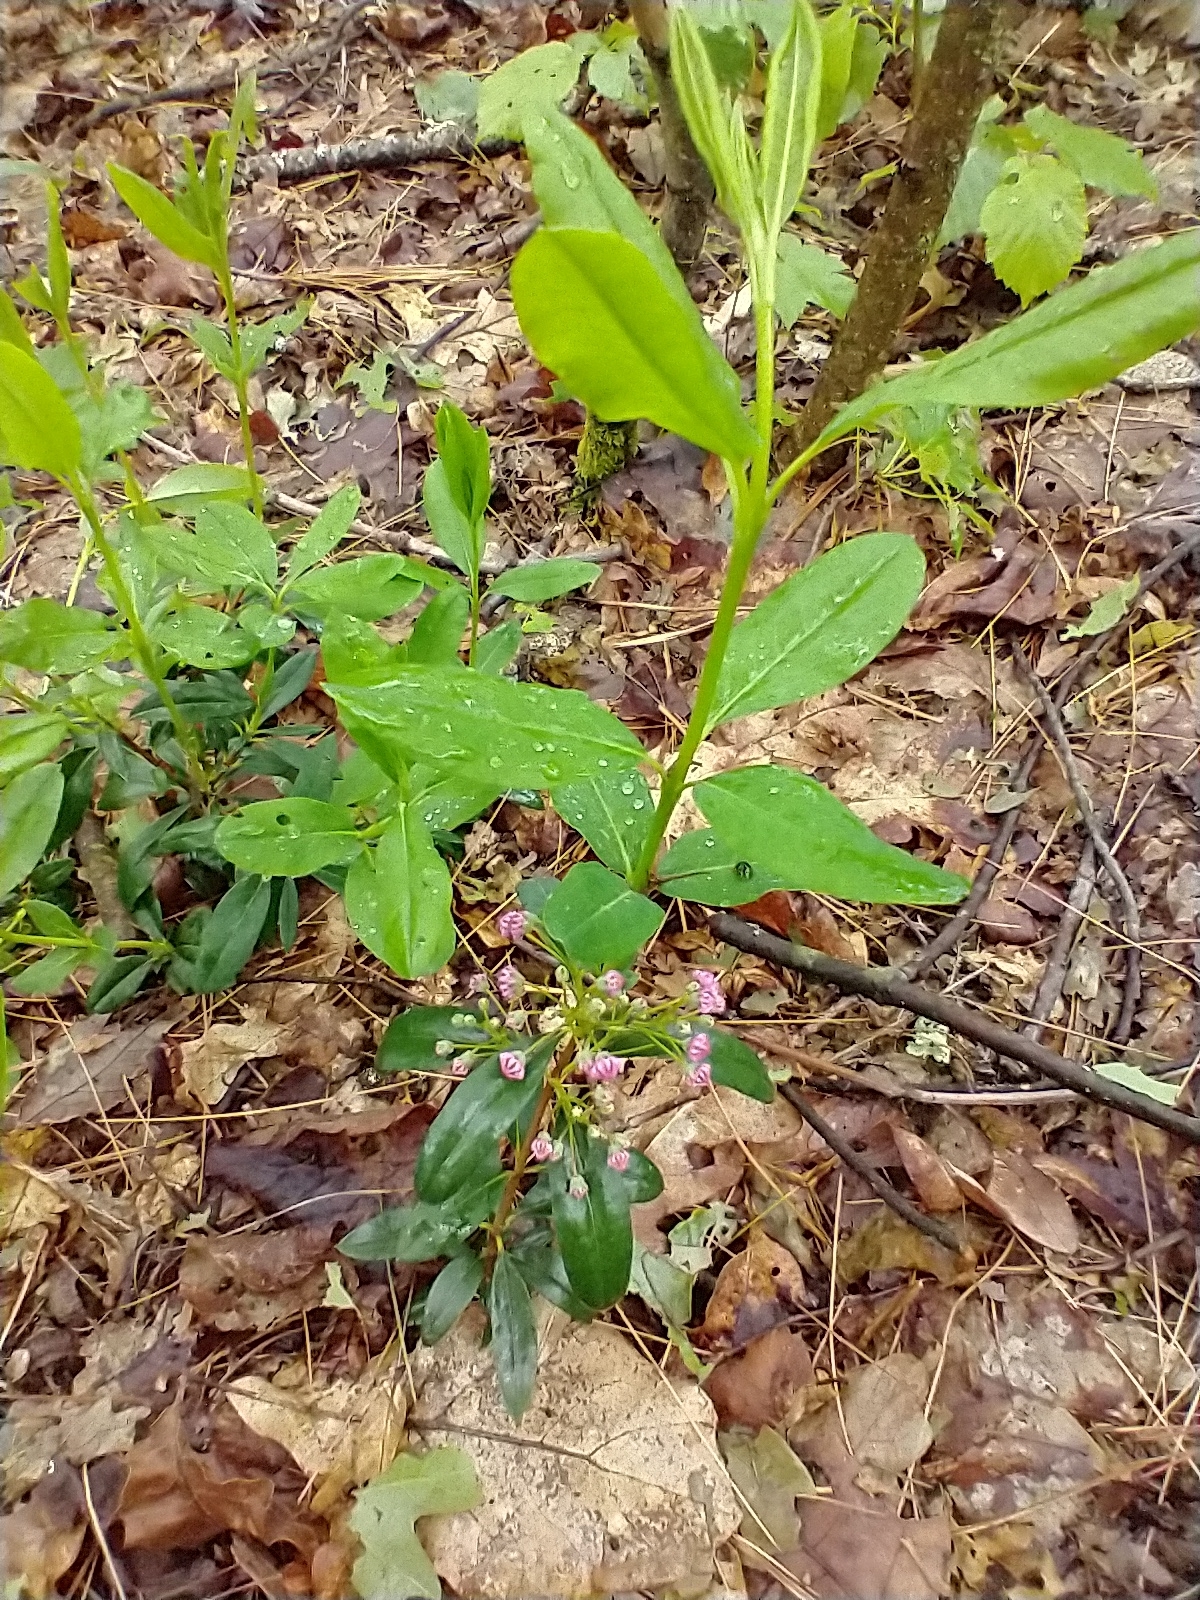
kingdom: Plantae
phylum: Tracheophyta
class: Magnoliopsida
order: Ericales
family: Ericaceae
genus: Kalmia
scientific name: Kalmia angustifolia
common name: Sheep-laurel
